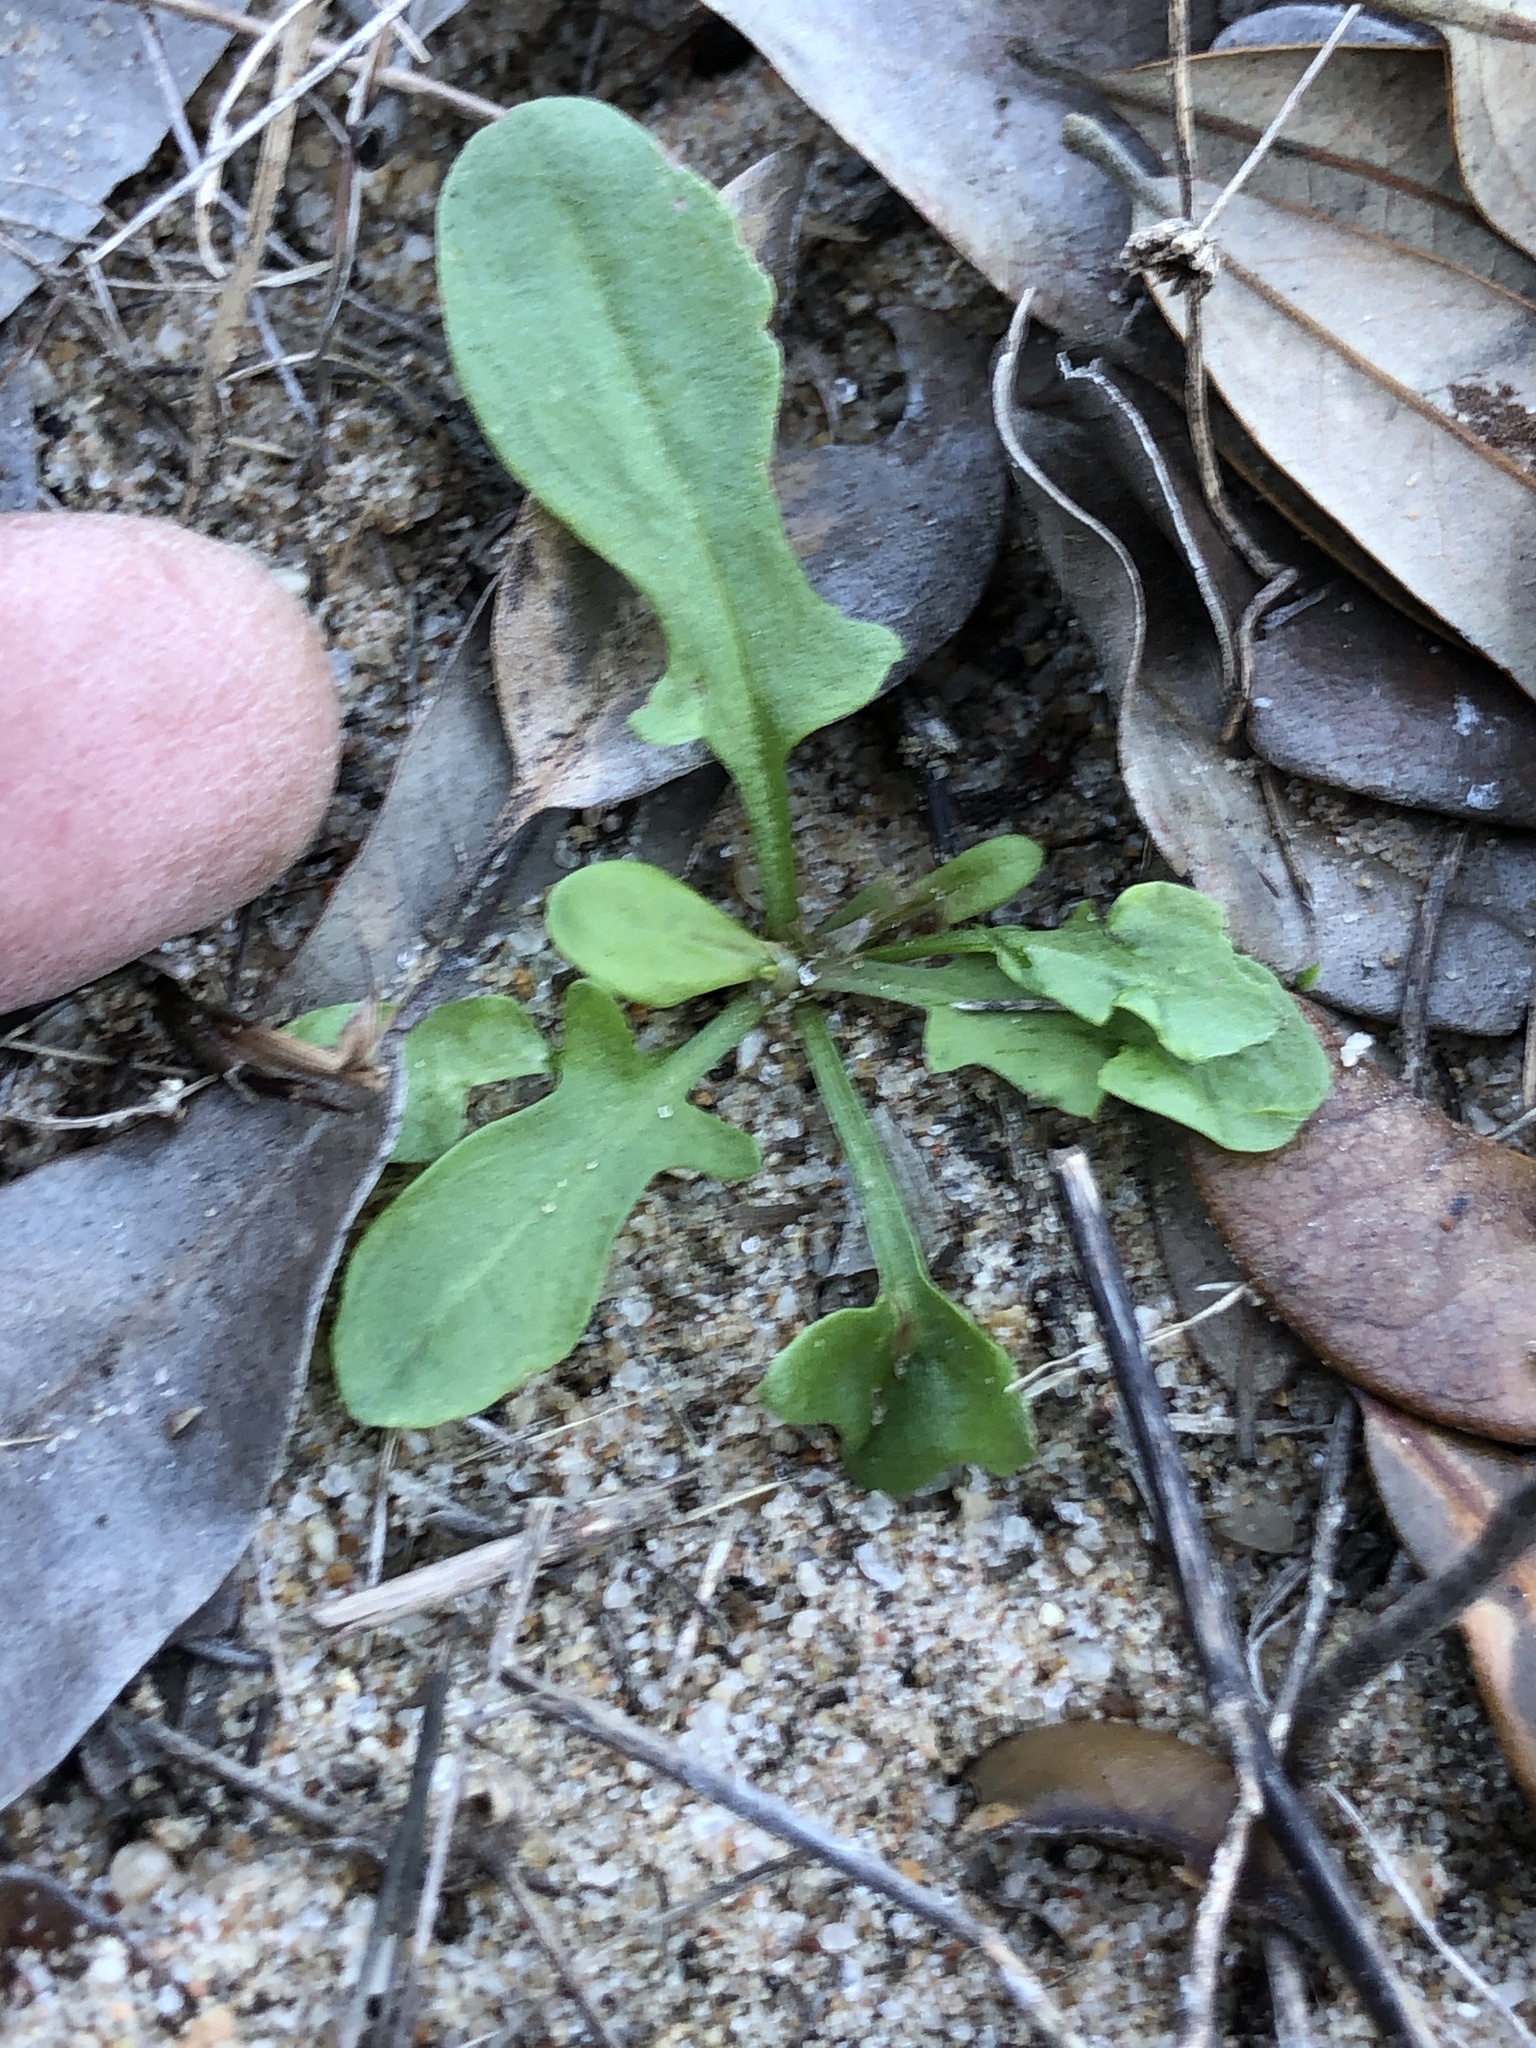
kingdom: Plantae
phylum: Tracheophyta
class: Magnoliopsida
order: Caryophyllales
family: Polygonaceae
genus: Rumex
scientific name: Rumex hastatulus
